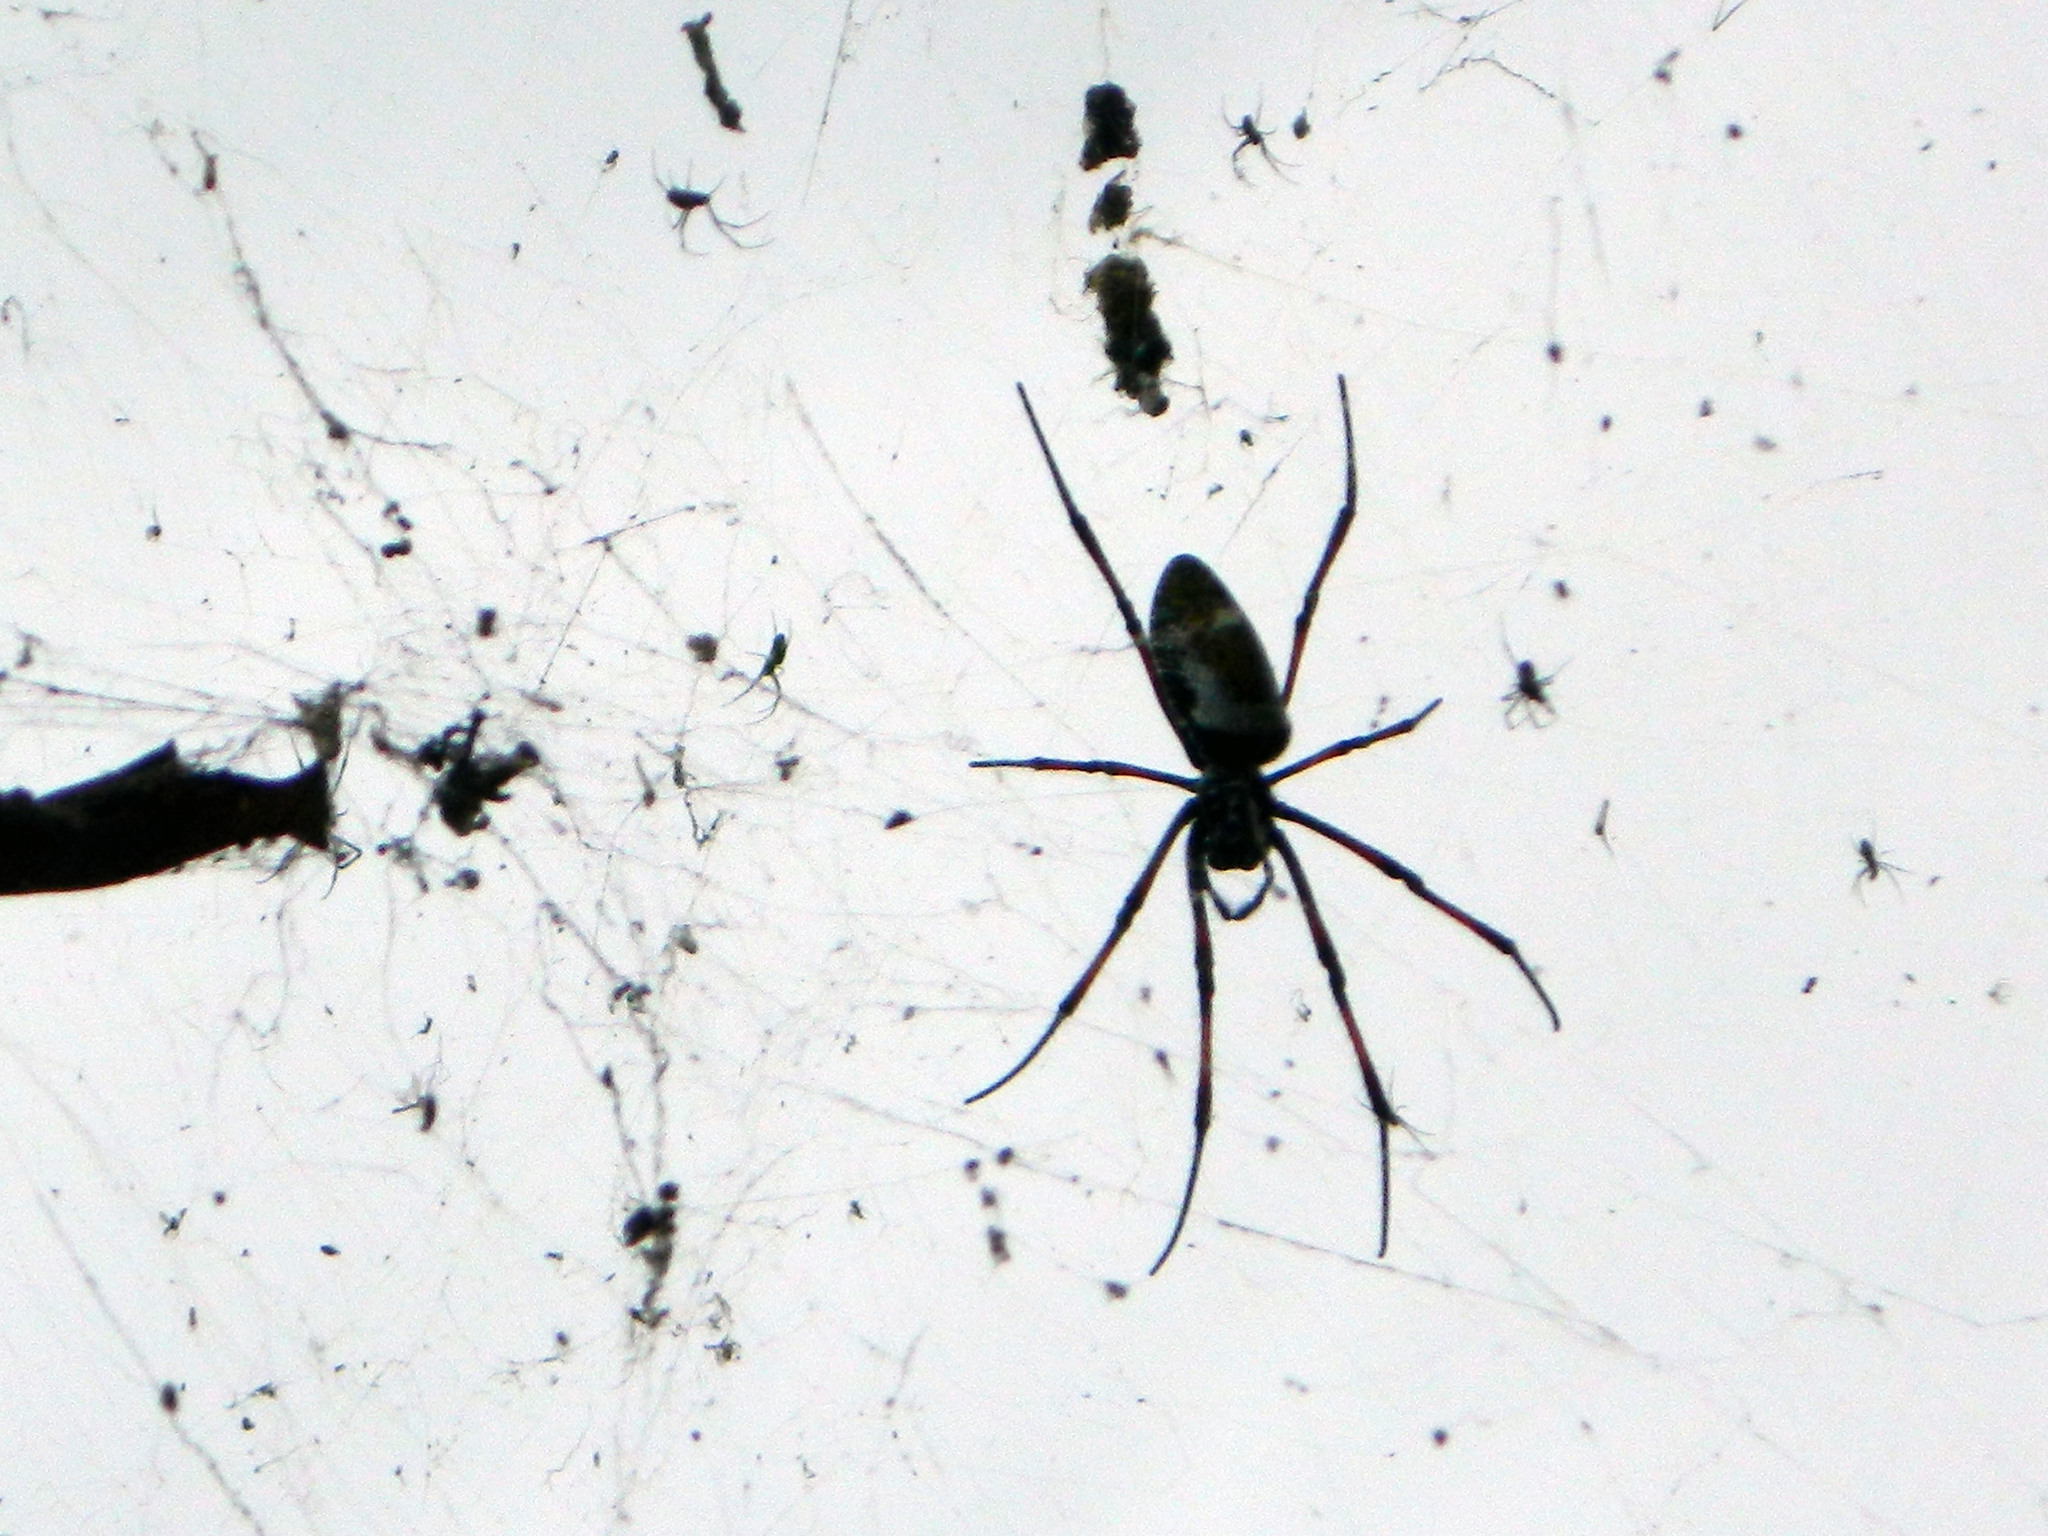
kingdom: Animalia
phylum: Arthropoda
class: Arachnida
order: Araneae
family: Araneidae
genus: Trichonephila
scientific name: Trichonephila inaurata
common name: Red-legged golden orb weaver
